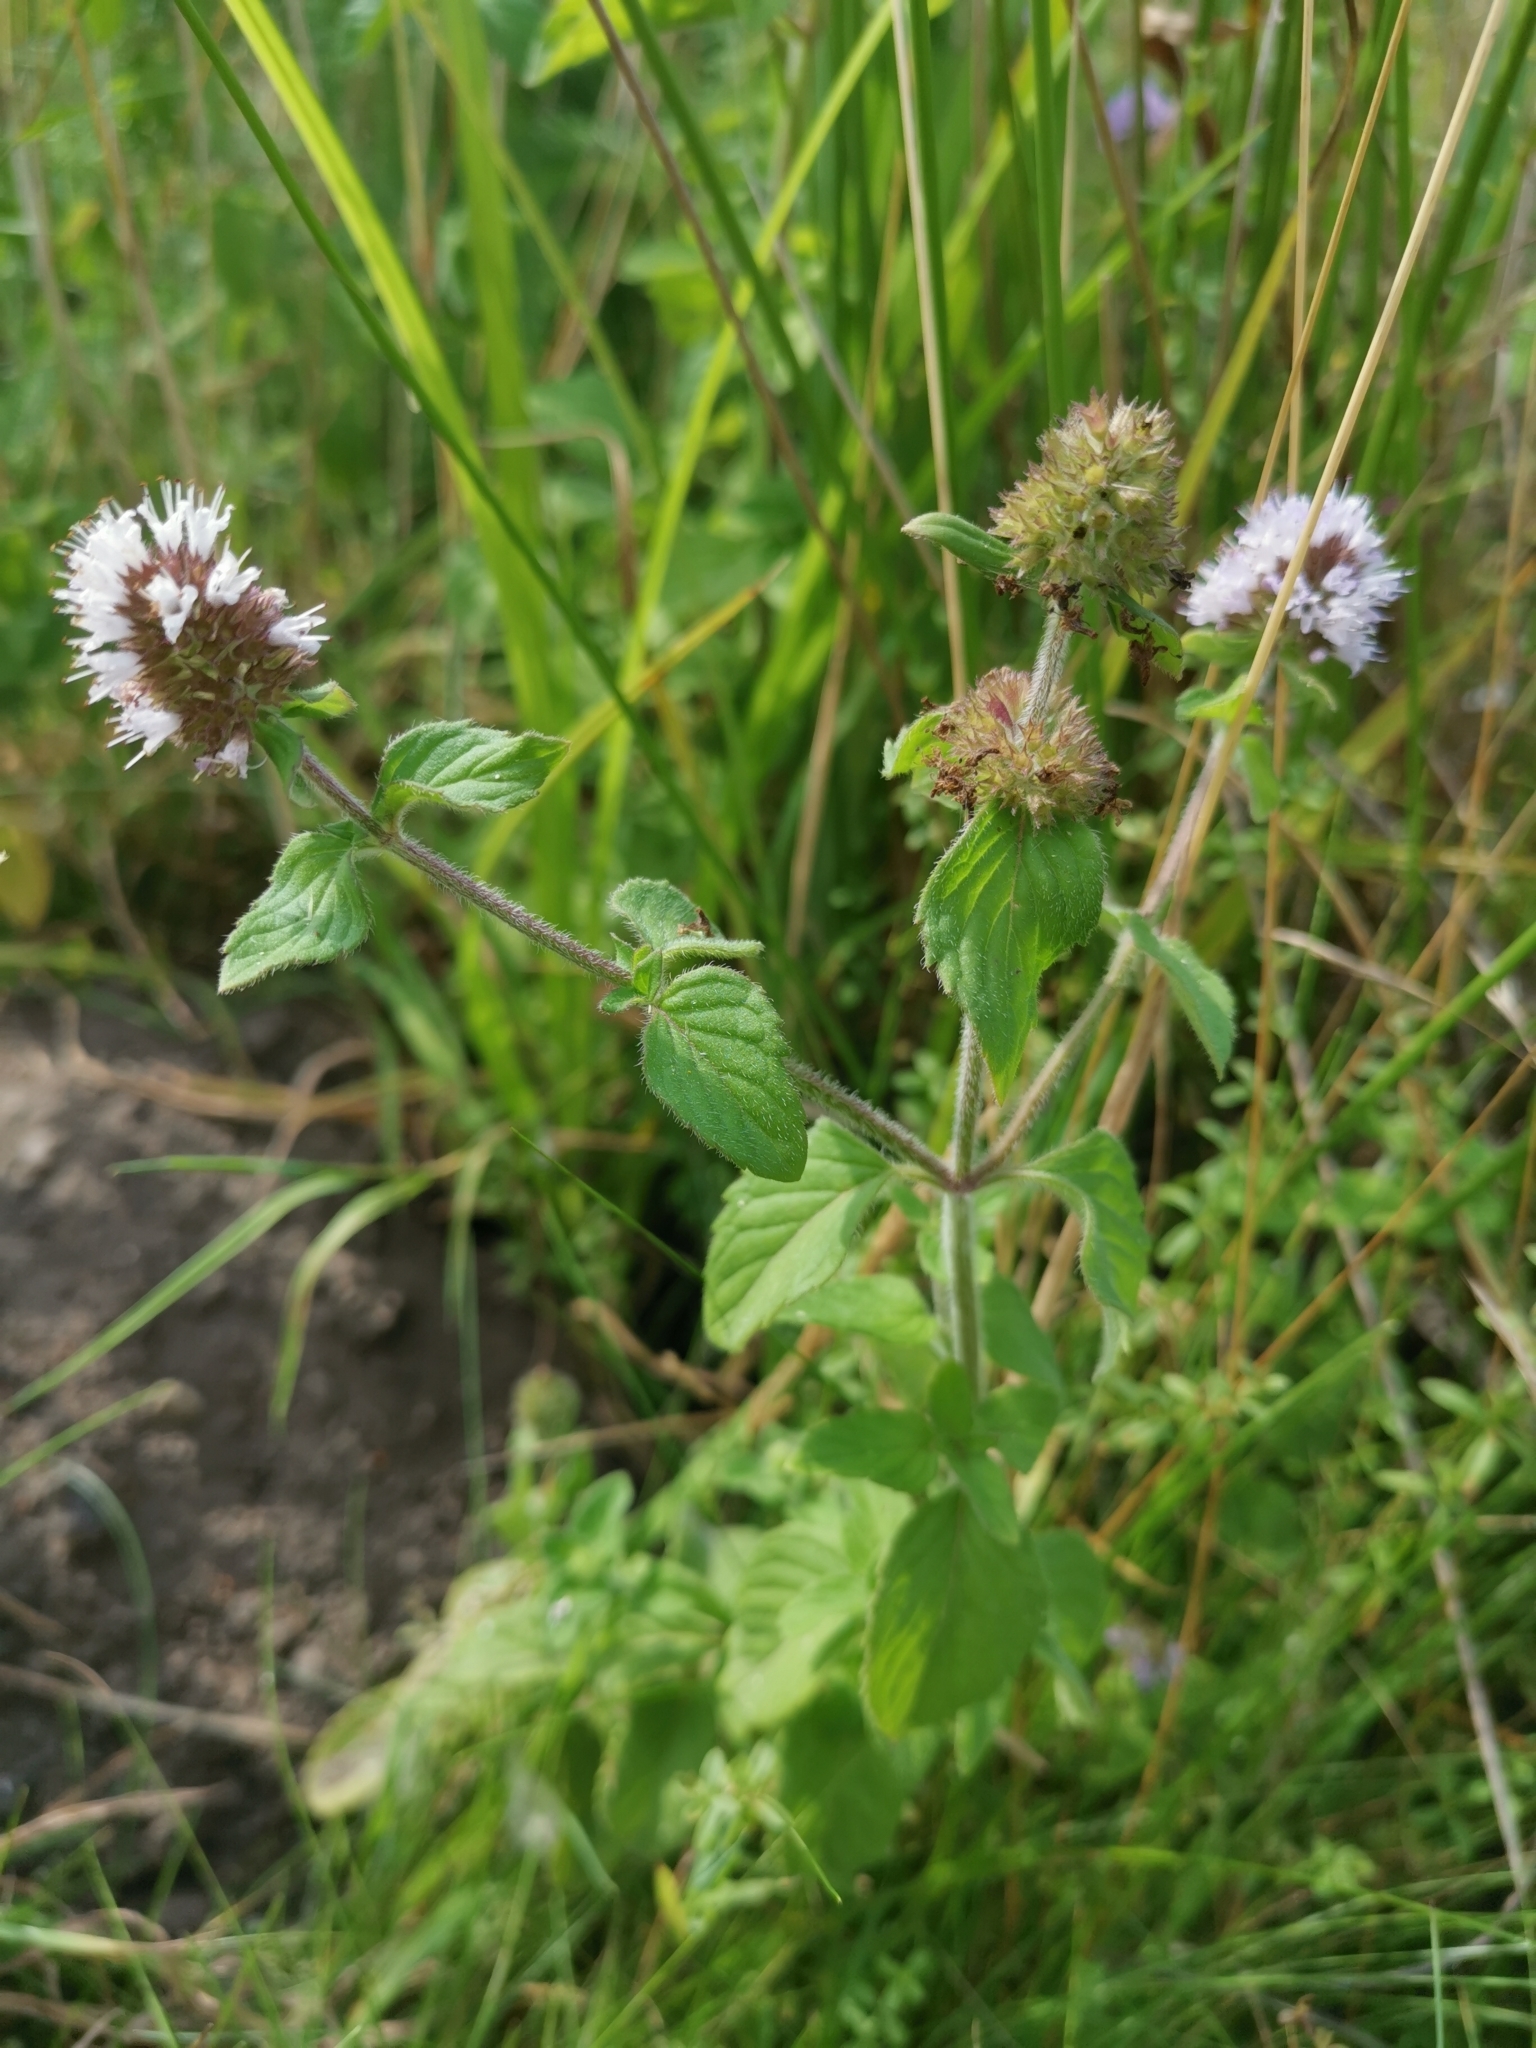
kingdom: Plantae
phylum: Tracheophyta
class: Magnoliopsida
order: Lamiales
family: Lamiaceae
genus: Mentha
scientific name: Mentha aquatica
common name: Water mint
